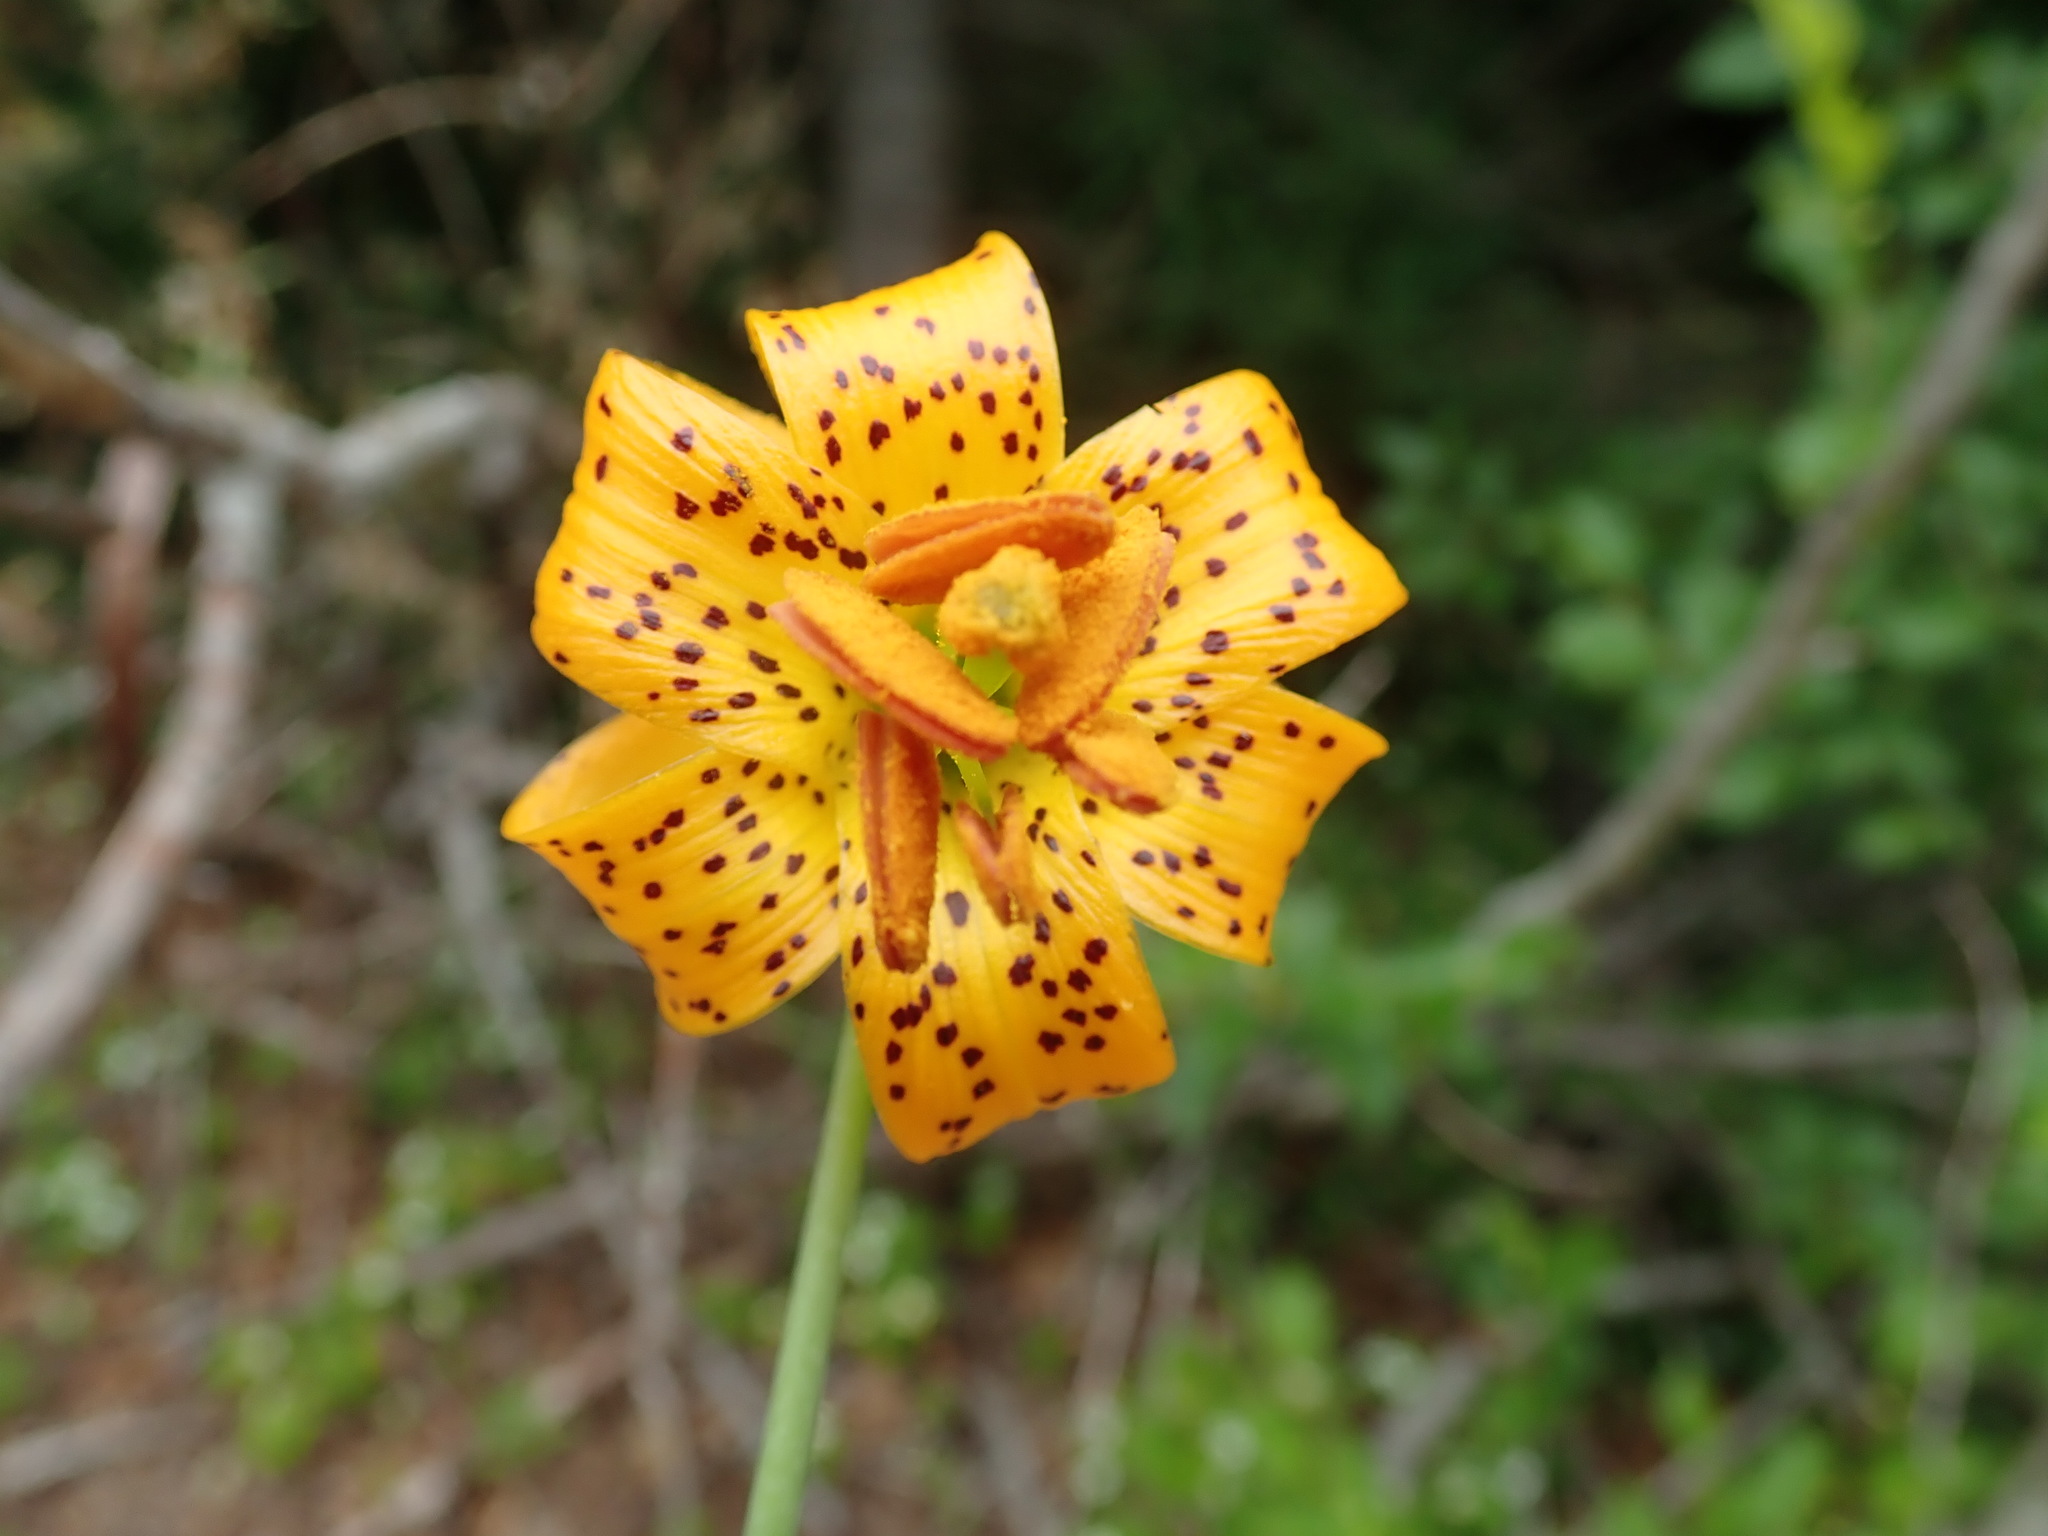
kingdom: Plantae
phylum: Tracheophyta
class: Liliopsida
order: Liliales
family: Liliaceae
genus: Lilium
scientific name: Lilium columbianum
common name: Columbia lily
